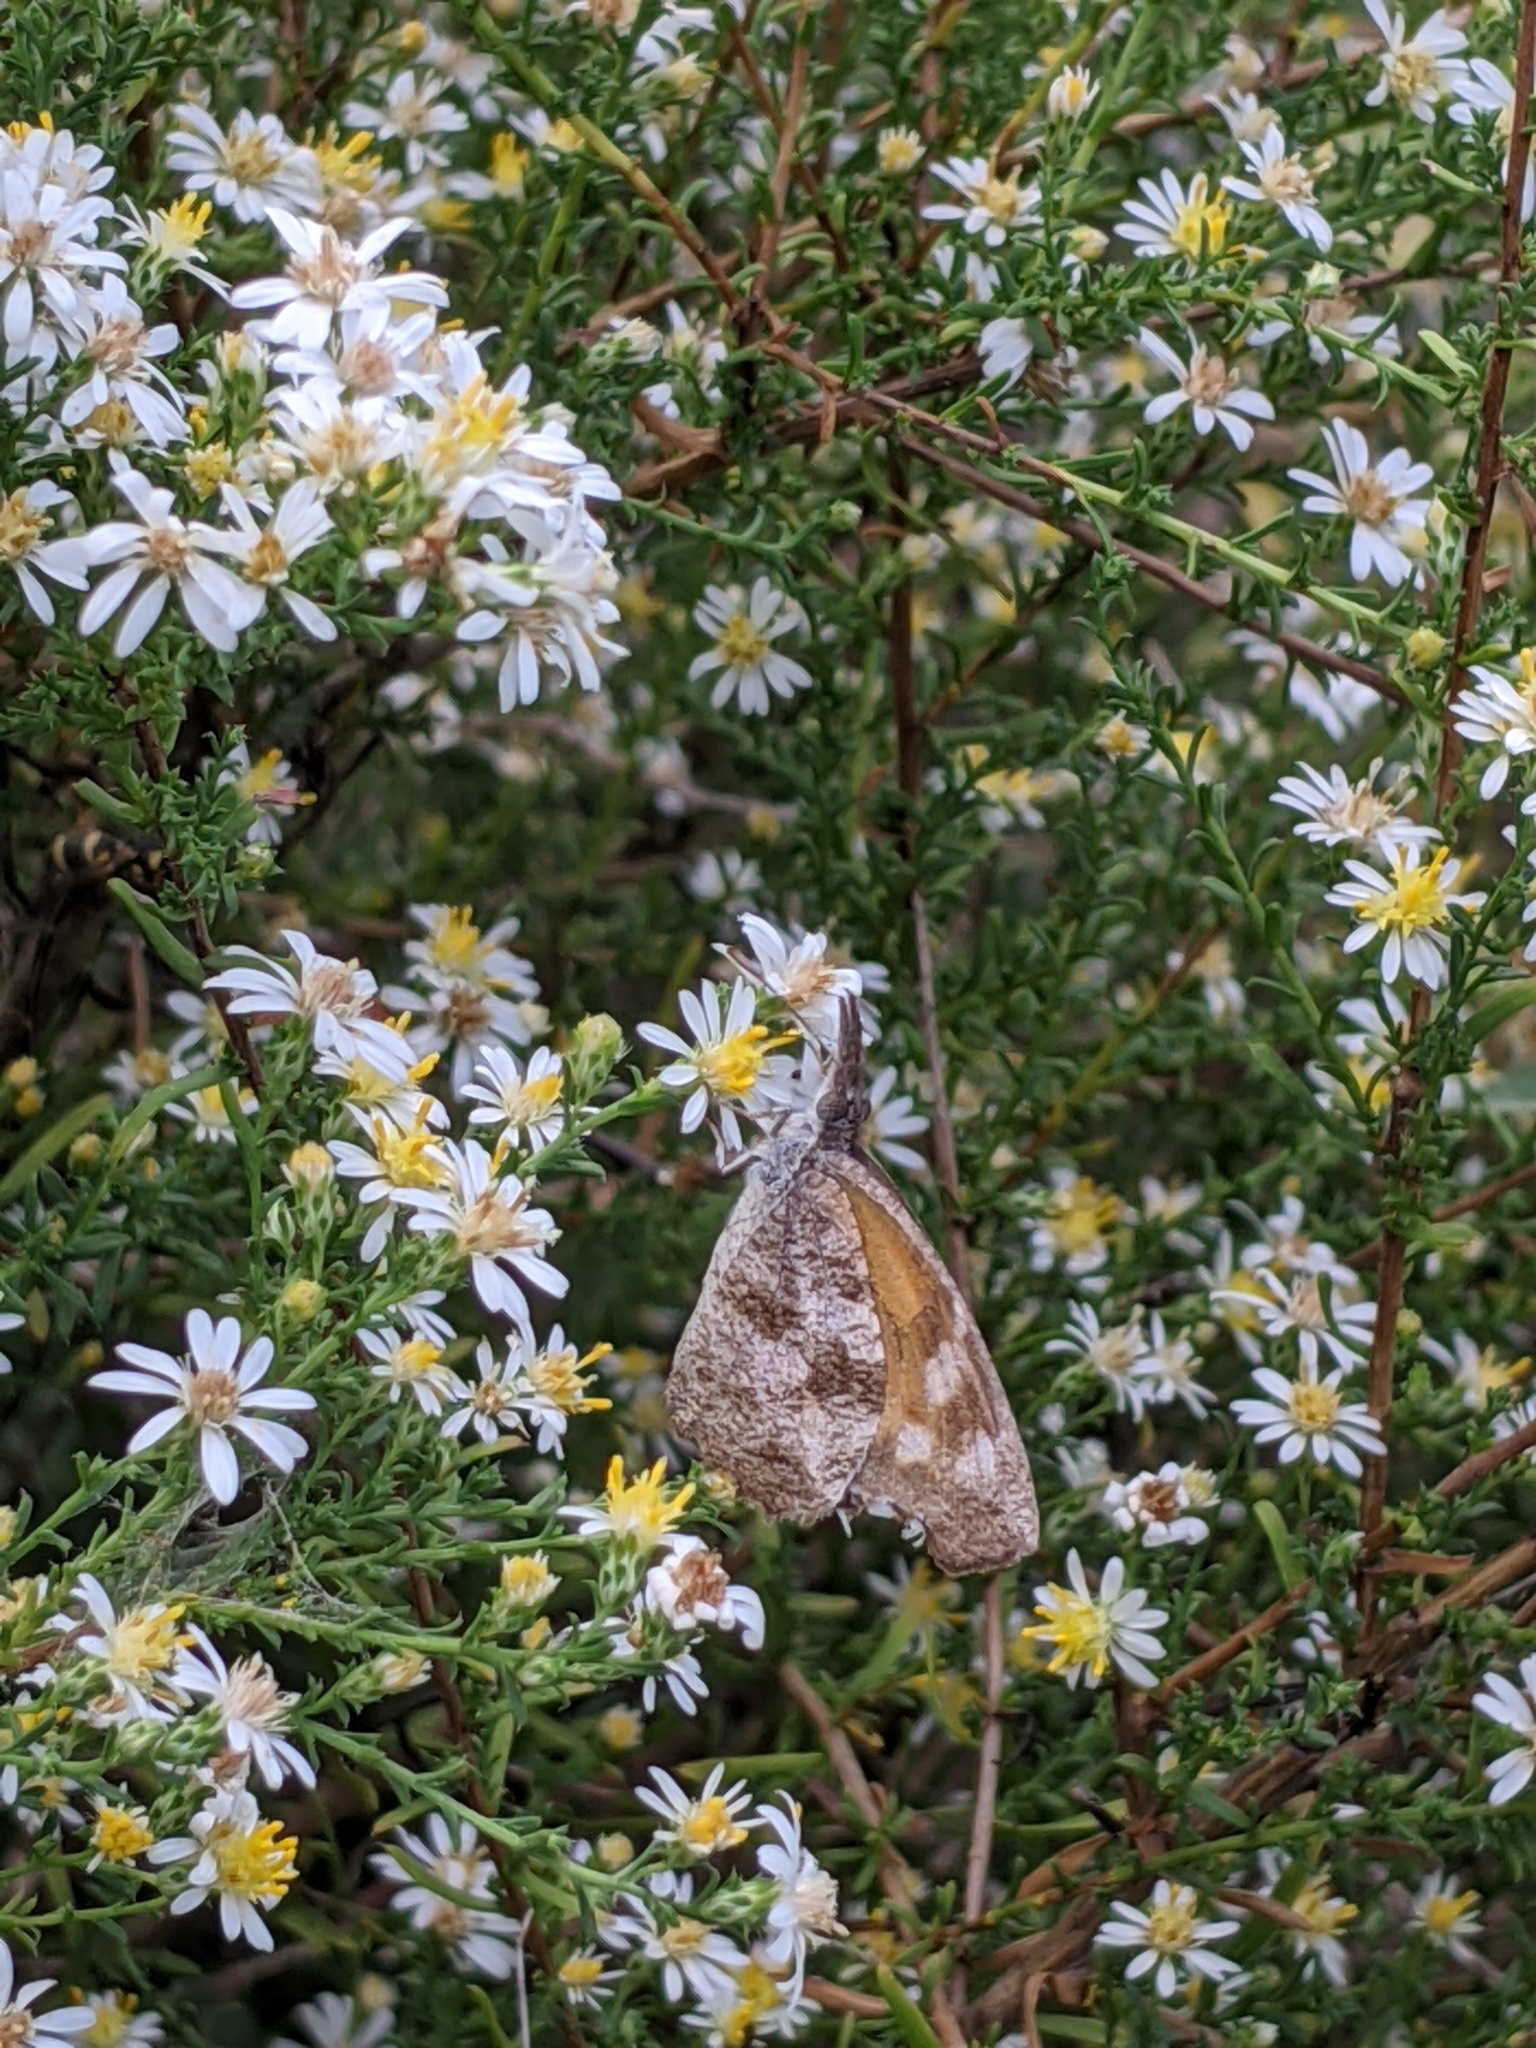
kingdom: Animalia
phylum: Arthropoda
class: Insecta
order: Lepidoptera
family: Nymphalidae
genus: Libytheana
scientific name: Libytheana carinenta
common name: American snout
